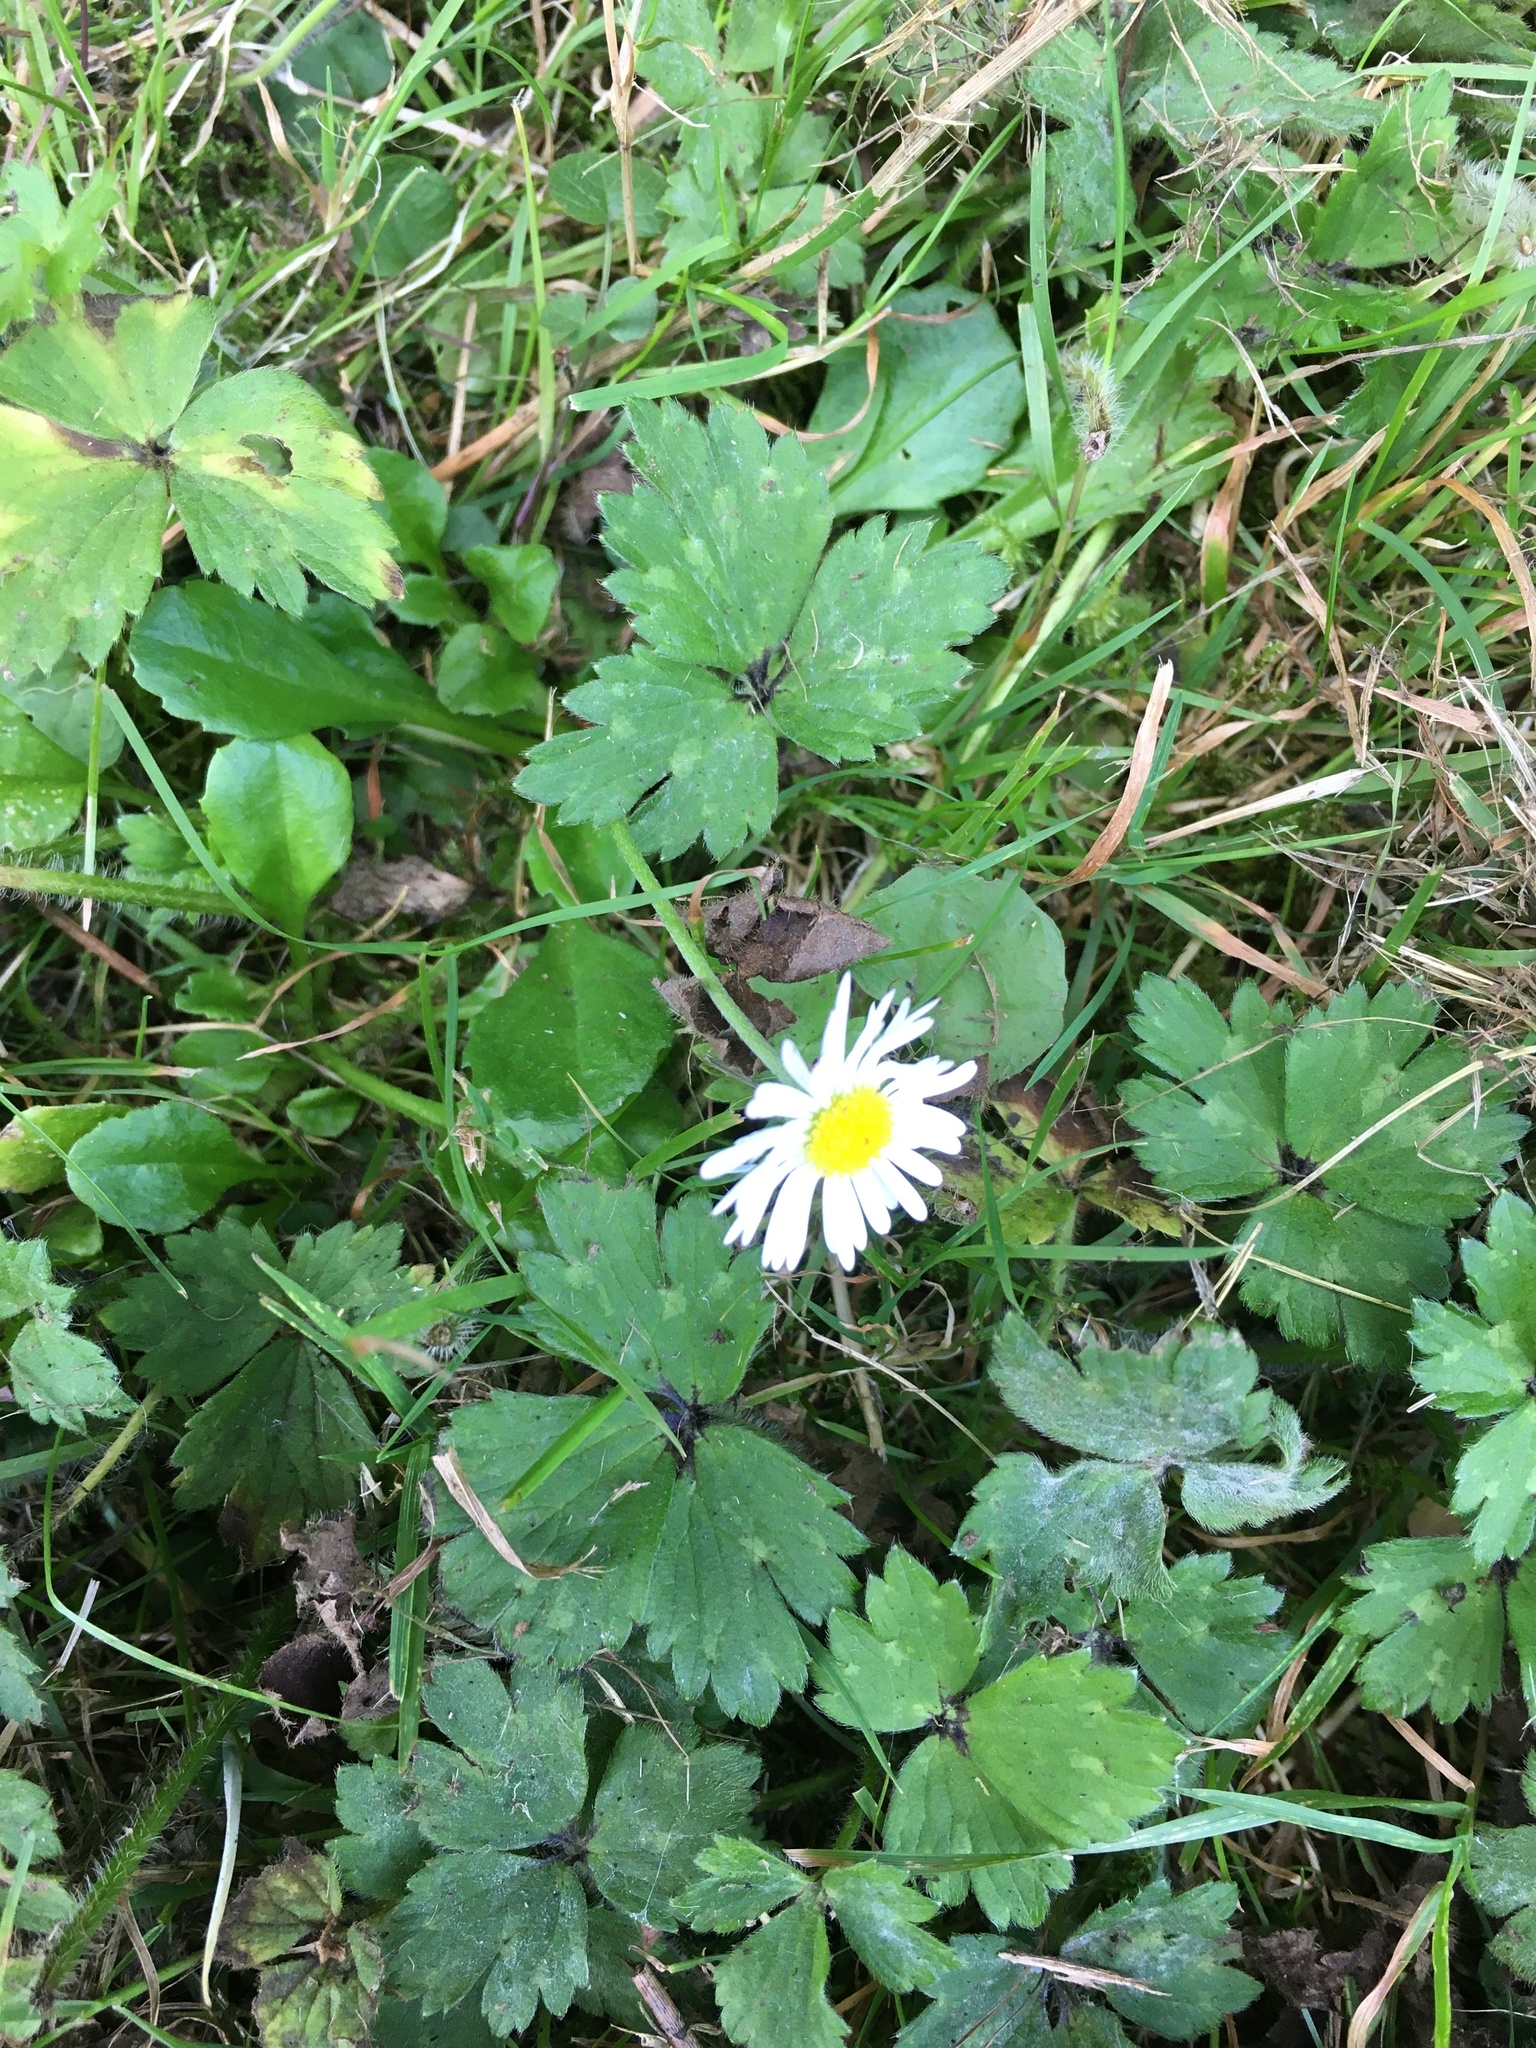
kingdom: Plantae
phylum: Tracheophyta
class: Magnoliopsida
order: Asterales
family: Asteraceae
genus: Bellis
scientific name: Bellis perennis
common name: Lawndaisy
